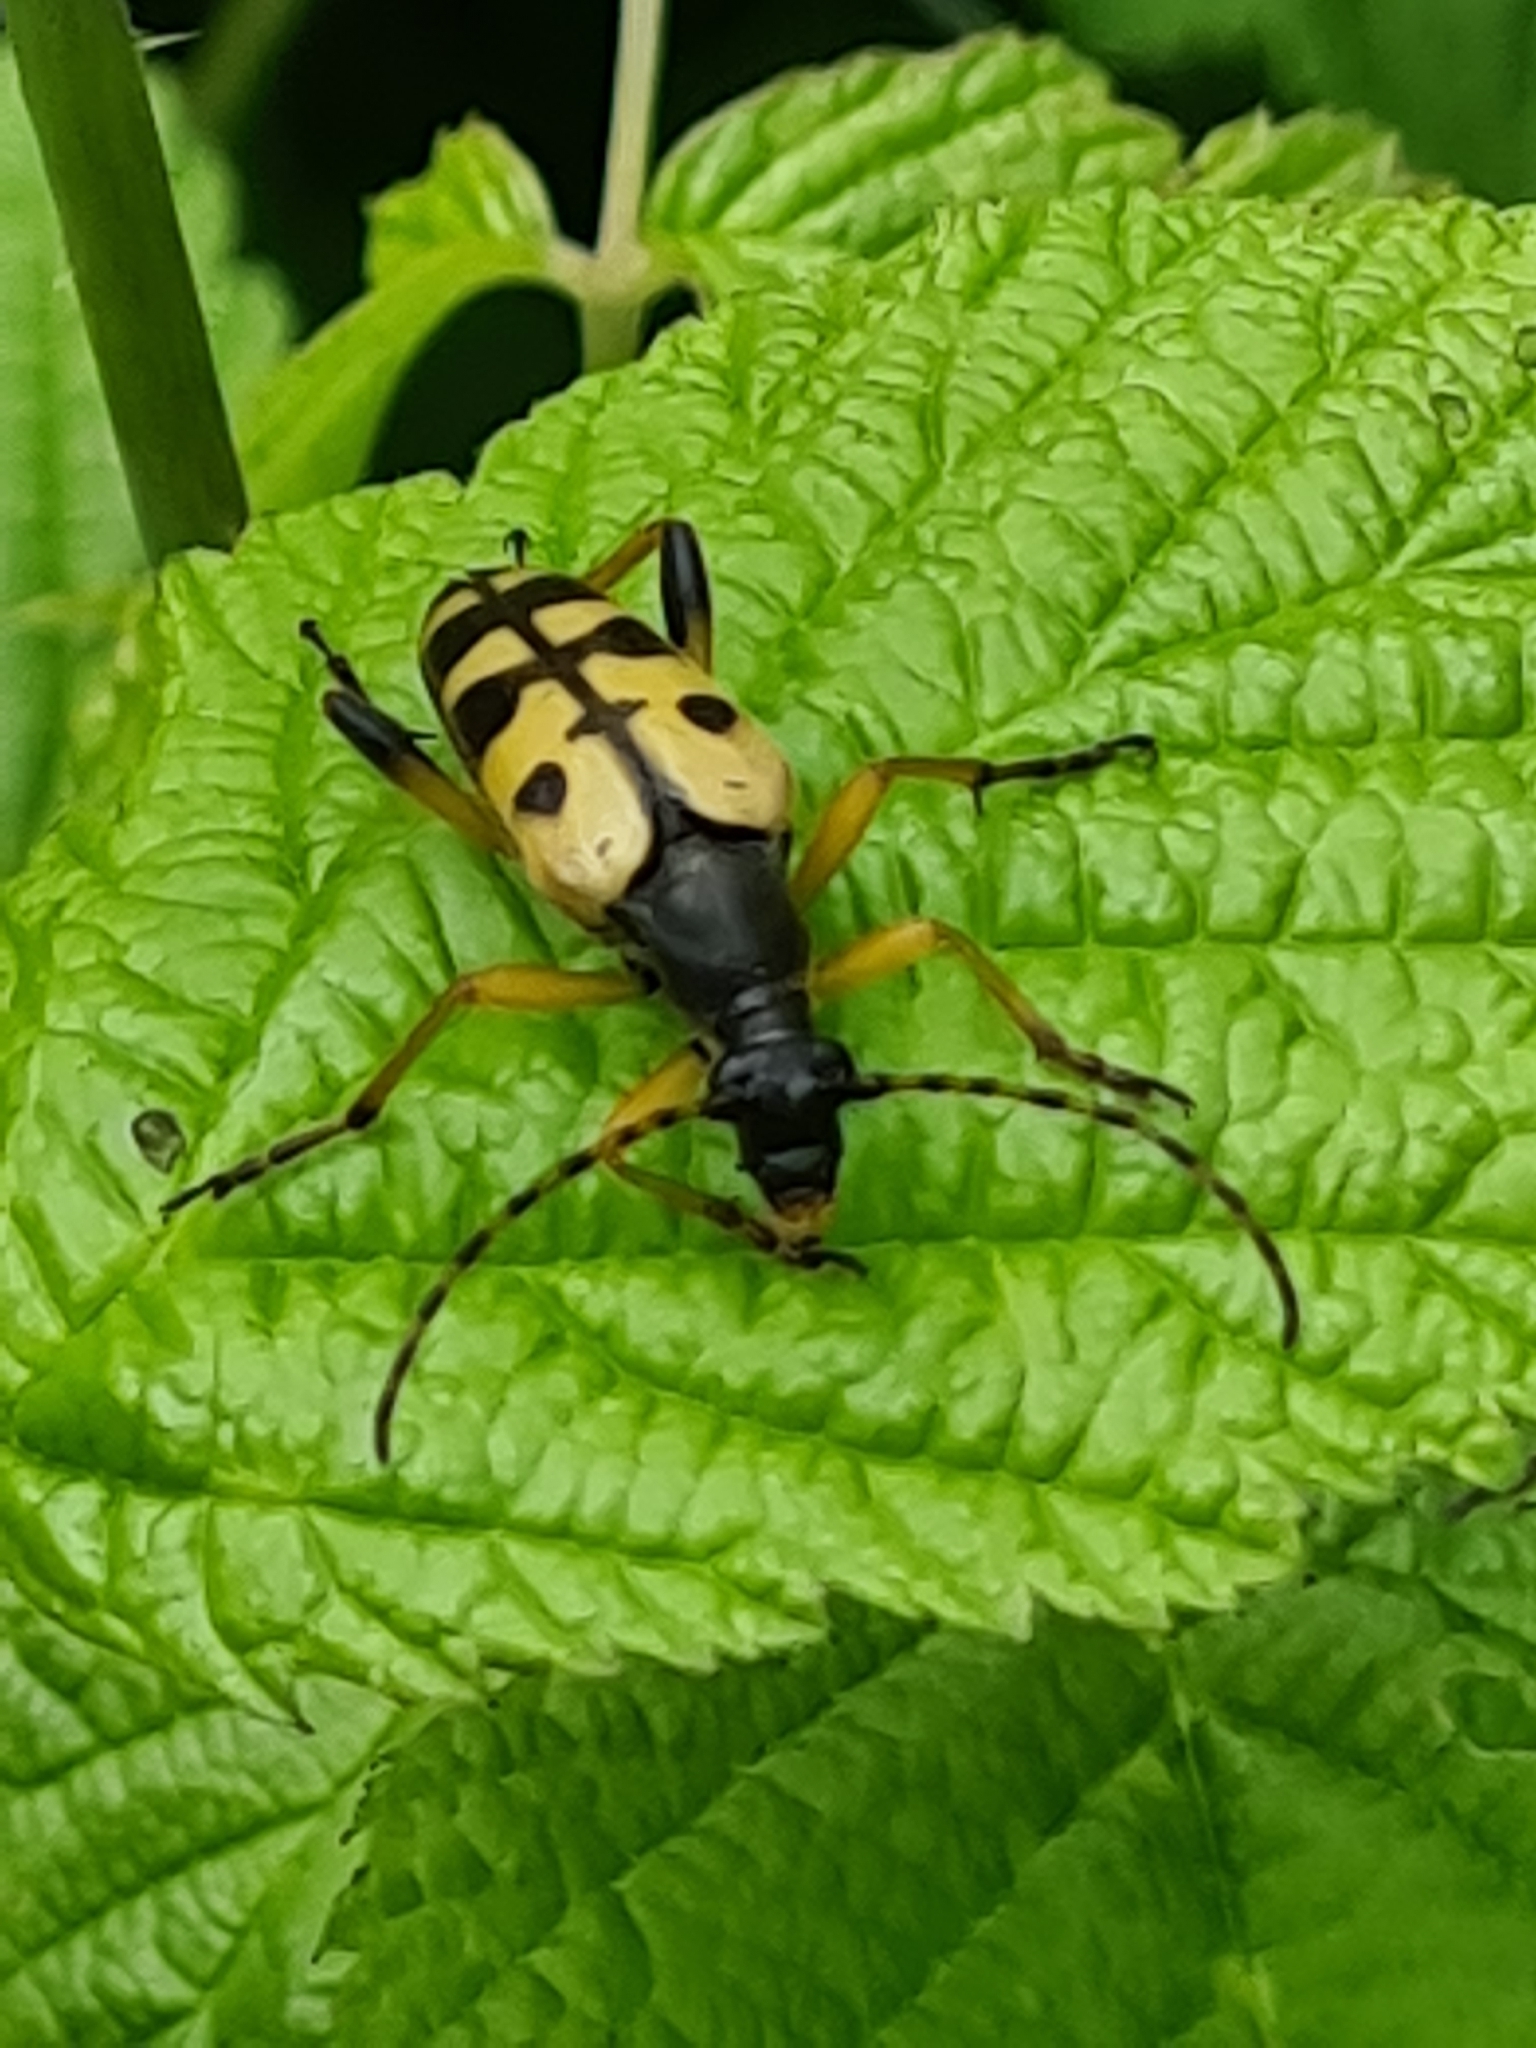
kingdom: Animalia
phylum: Arthropoda
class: Insecta
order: Coleoptera
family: Cerambycidae
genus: Rutpela
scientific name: Rutpela maculata
